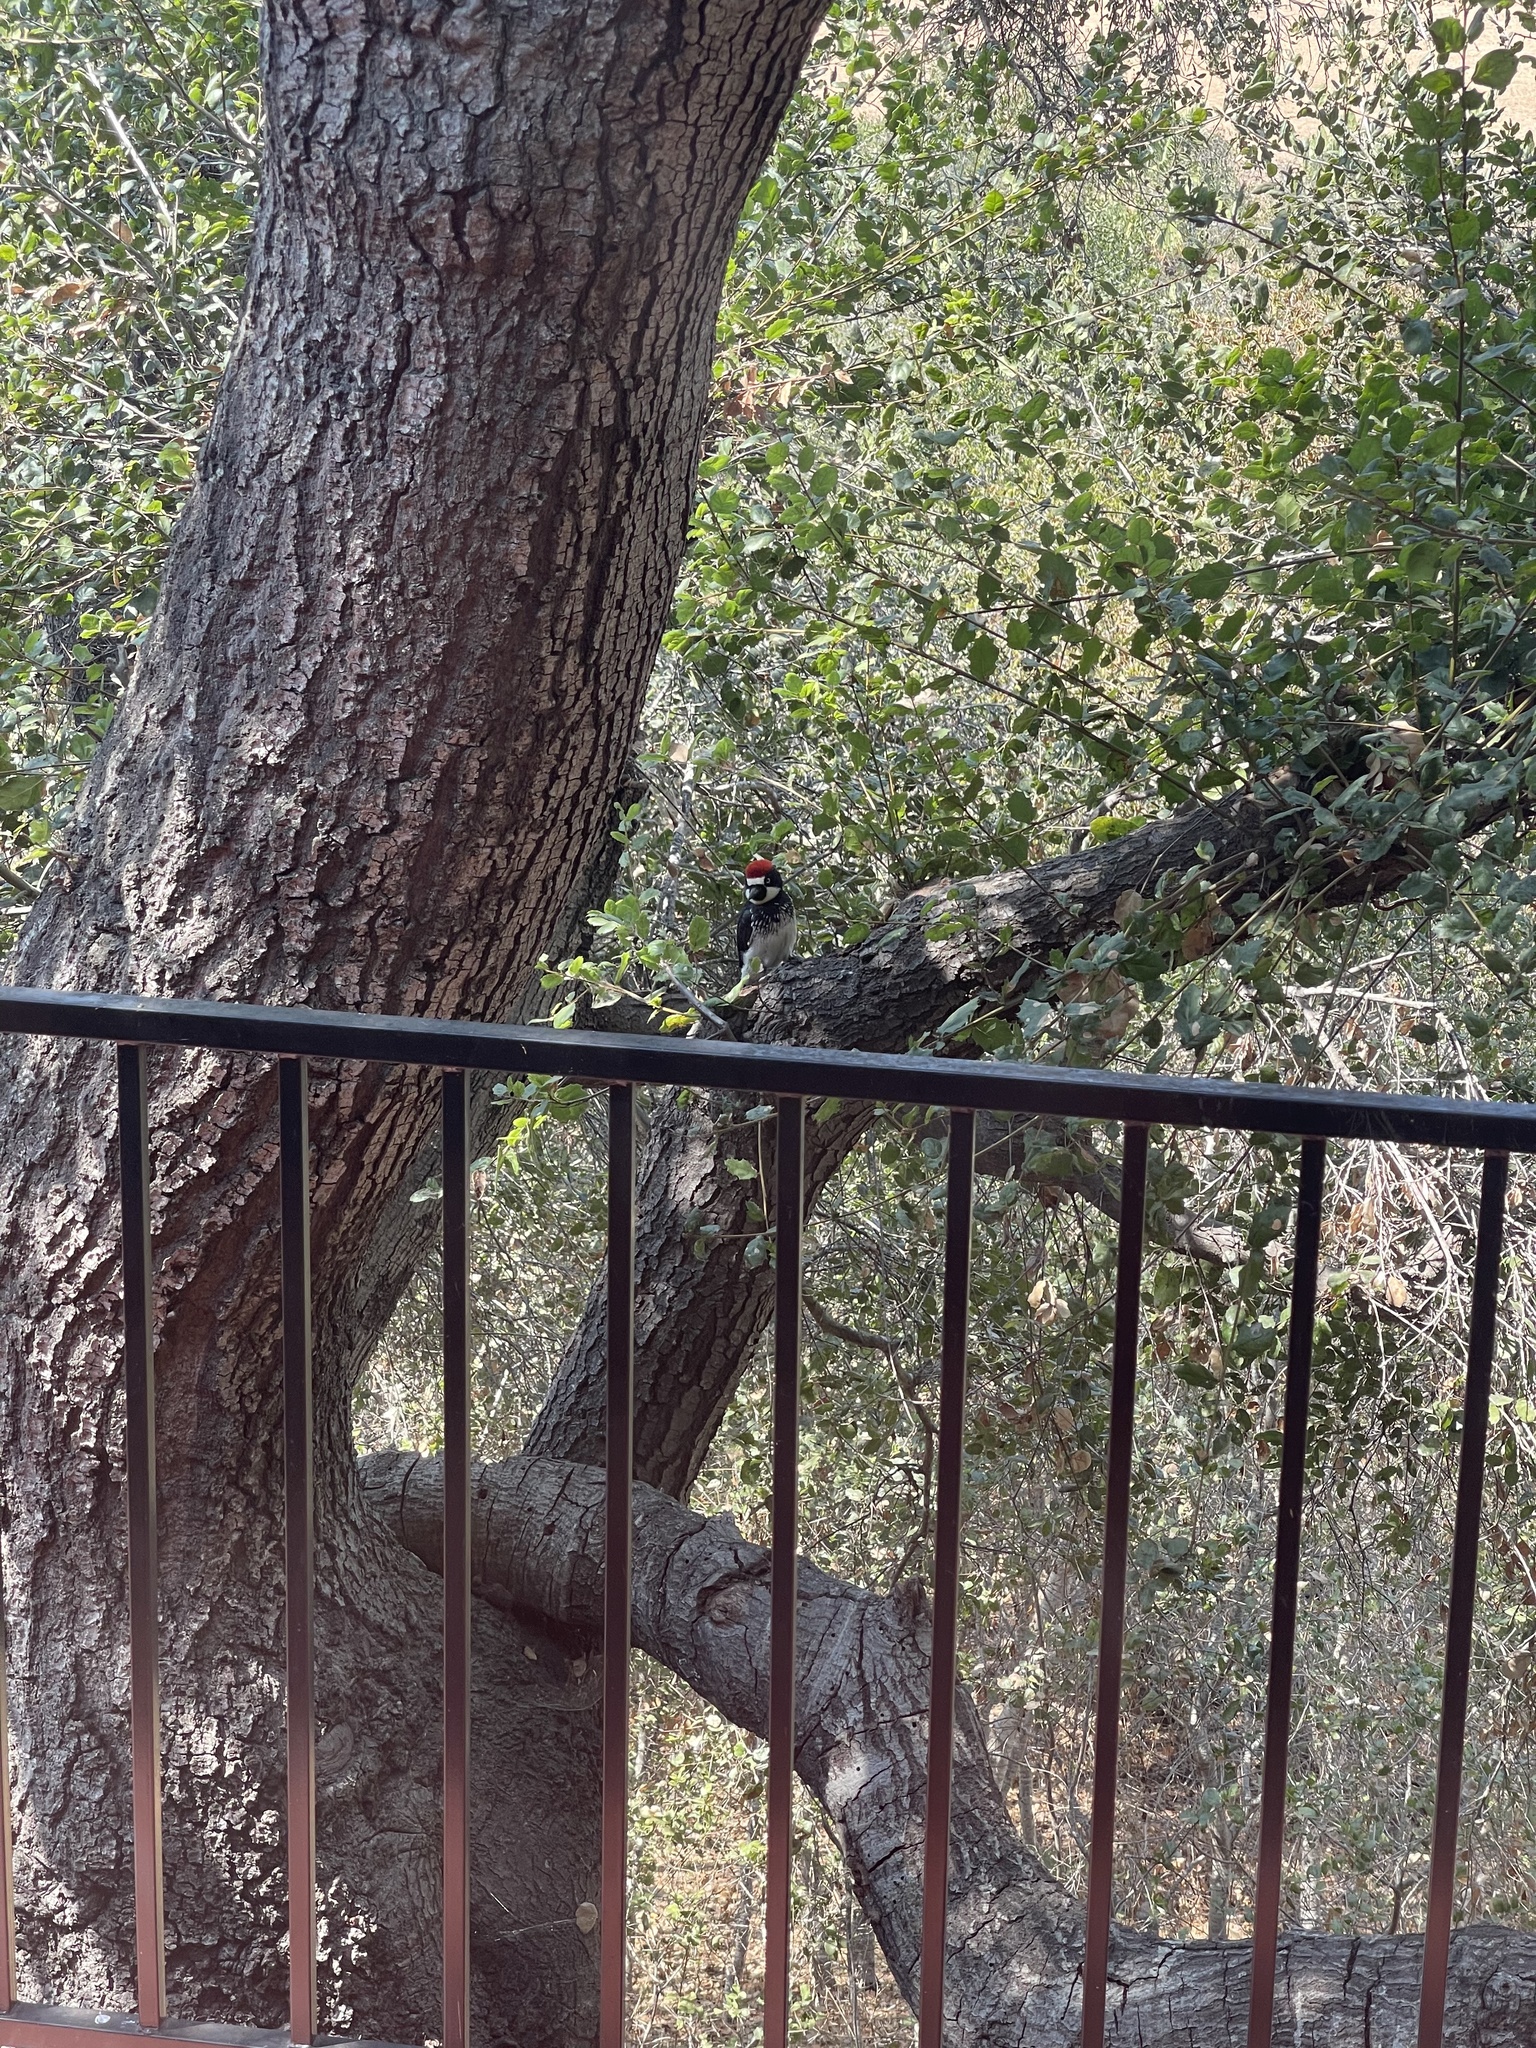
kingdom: Animalia
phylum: Chordata
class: Aves
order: Piciformes
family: Picidae
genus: Melanerpes
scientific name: Melanerpes formicivorus
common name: Acorn woodpecker
